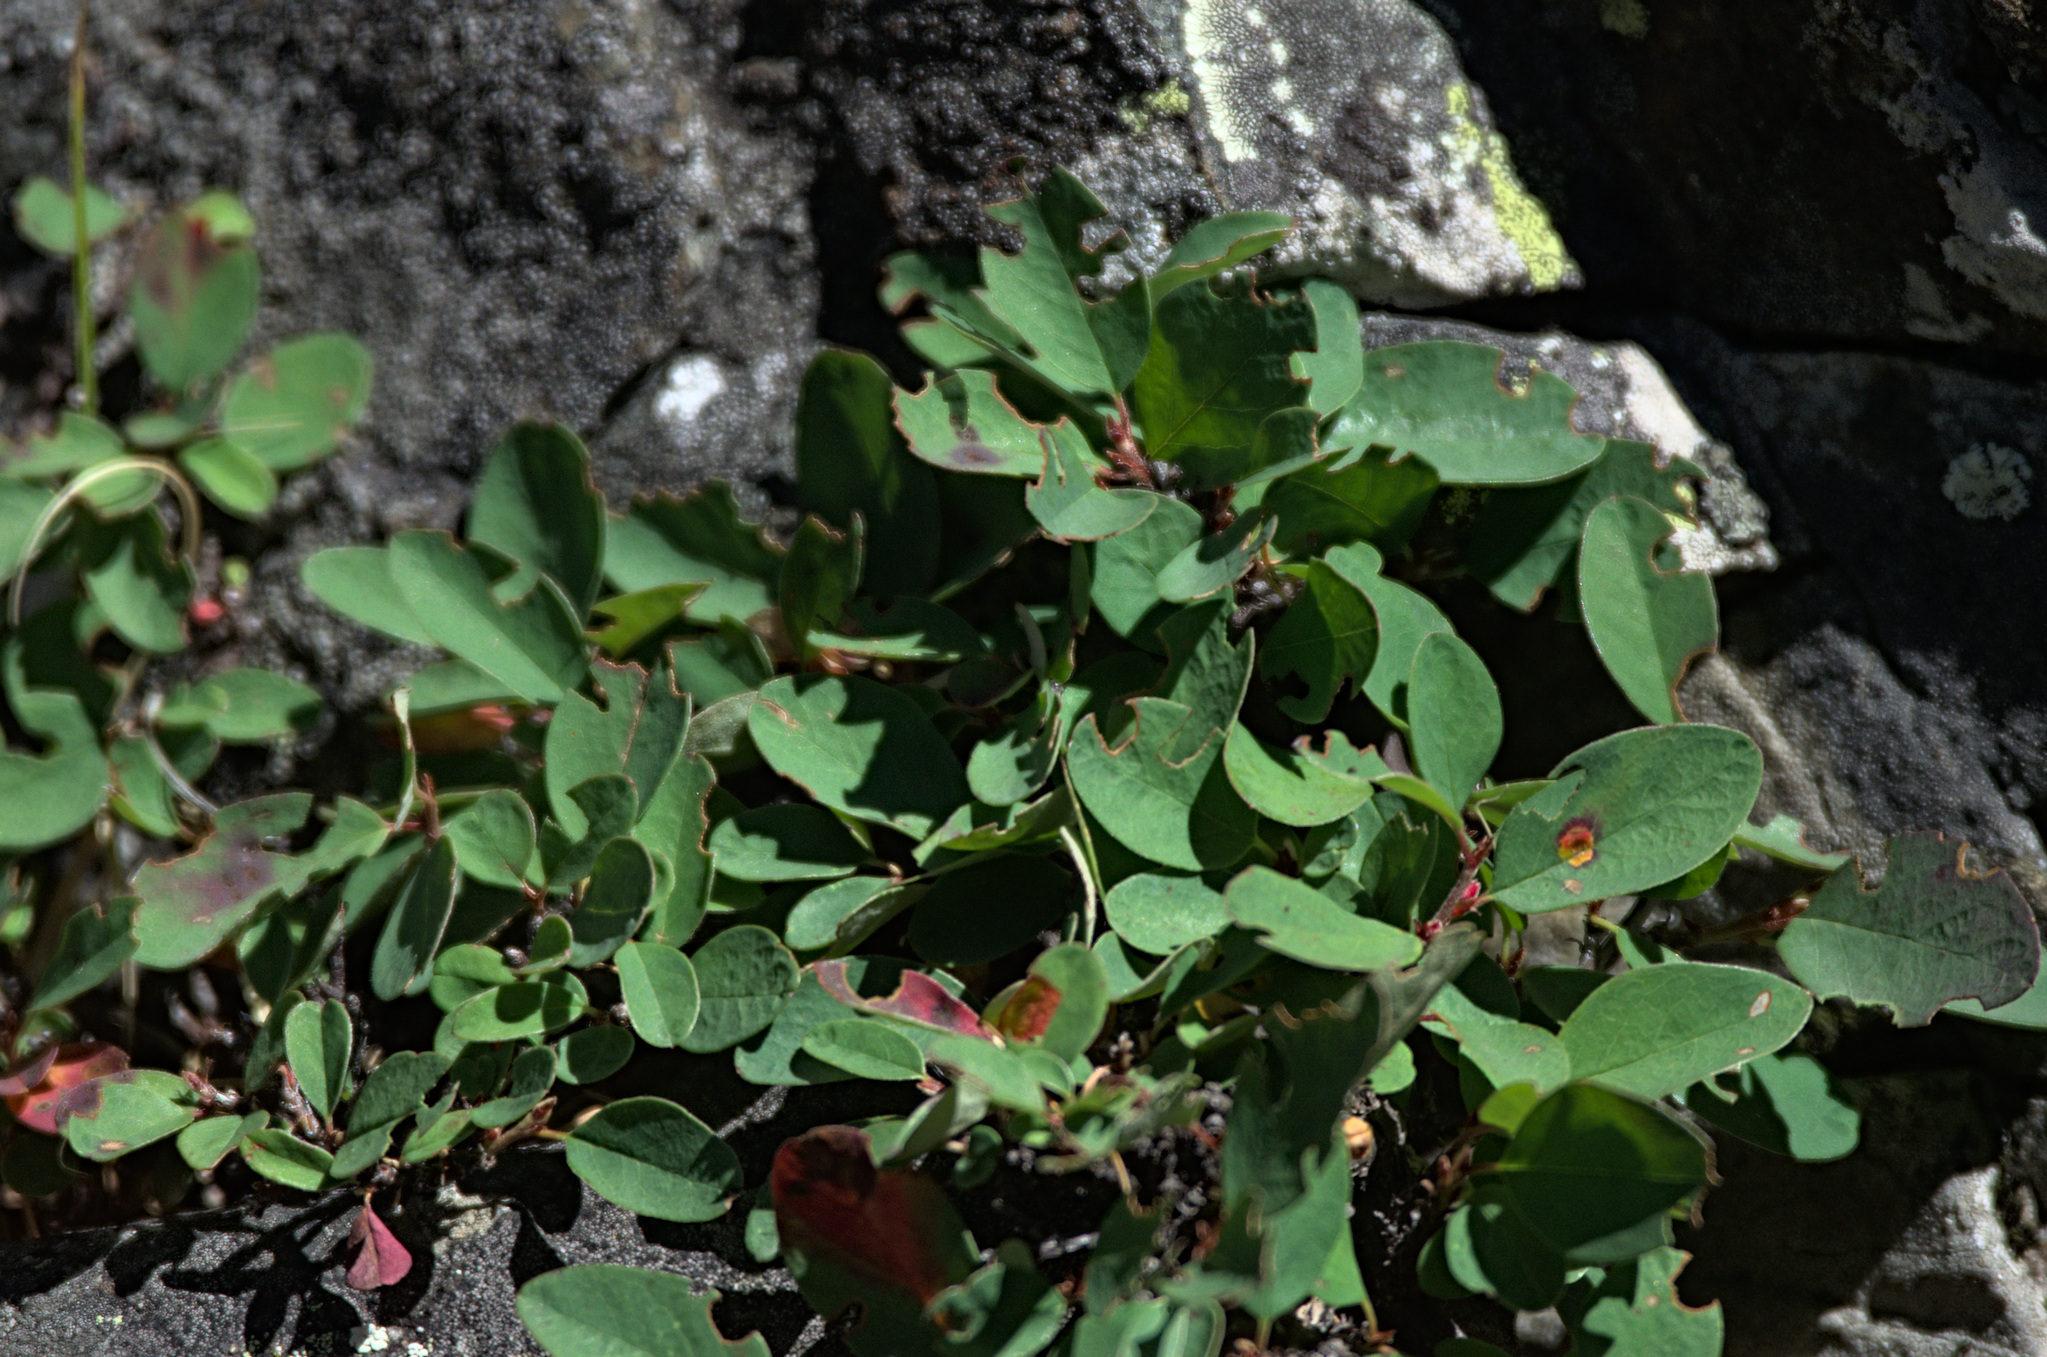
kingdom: Plantae
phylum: Tracheophyta
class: Magnoliopsida
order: Ericales
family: Ericaceae
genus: Vaccinium
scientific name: Vaccinium uliginosum
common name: Bog bilberry
